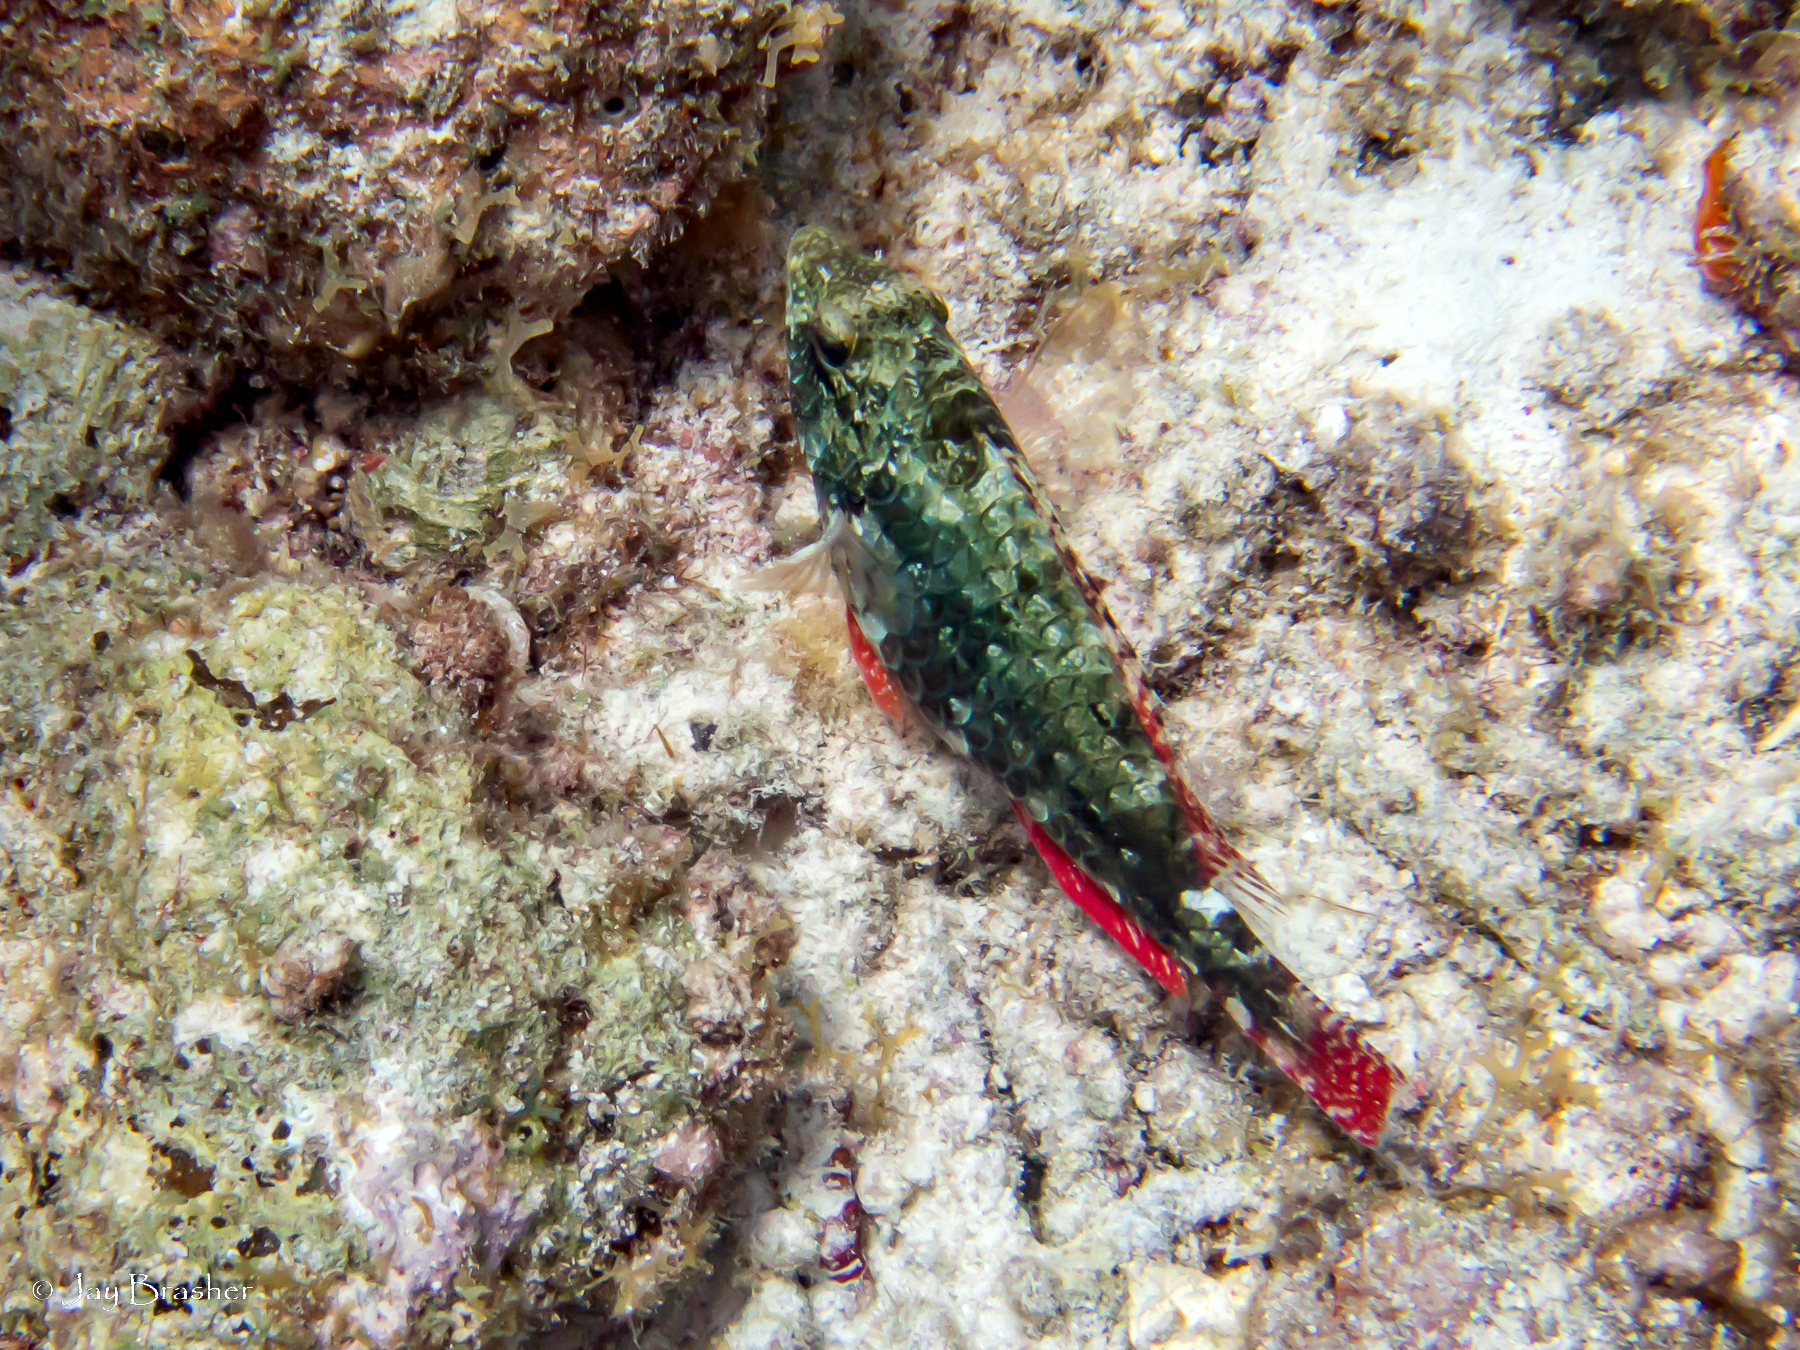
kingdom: Animalia
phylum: Chordata
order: Perciformes
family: Scaridae
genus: Sparisoma
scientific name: Sparisoma aurofrenatum
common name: Redband parrotfish
